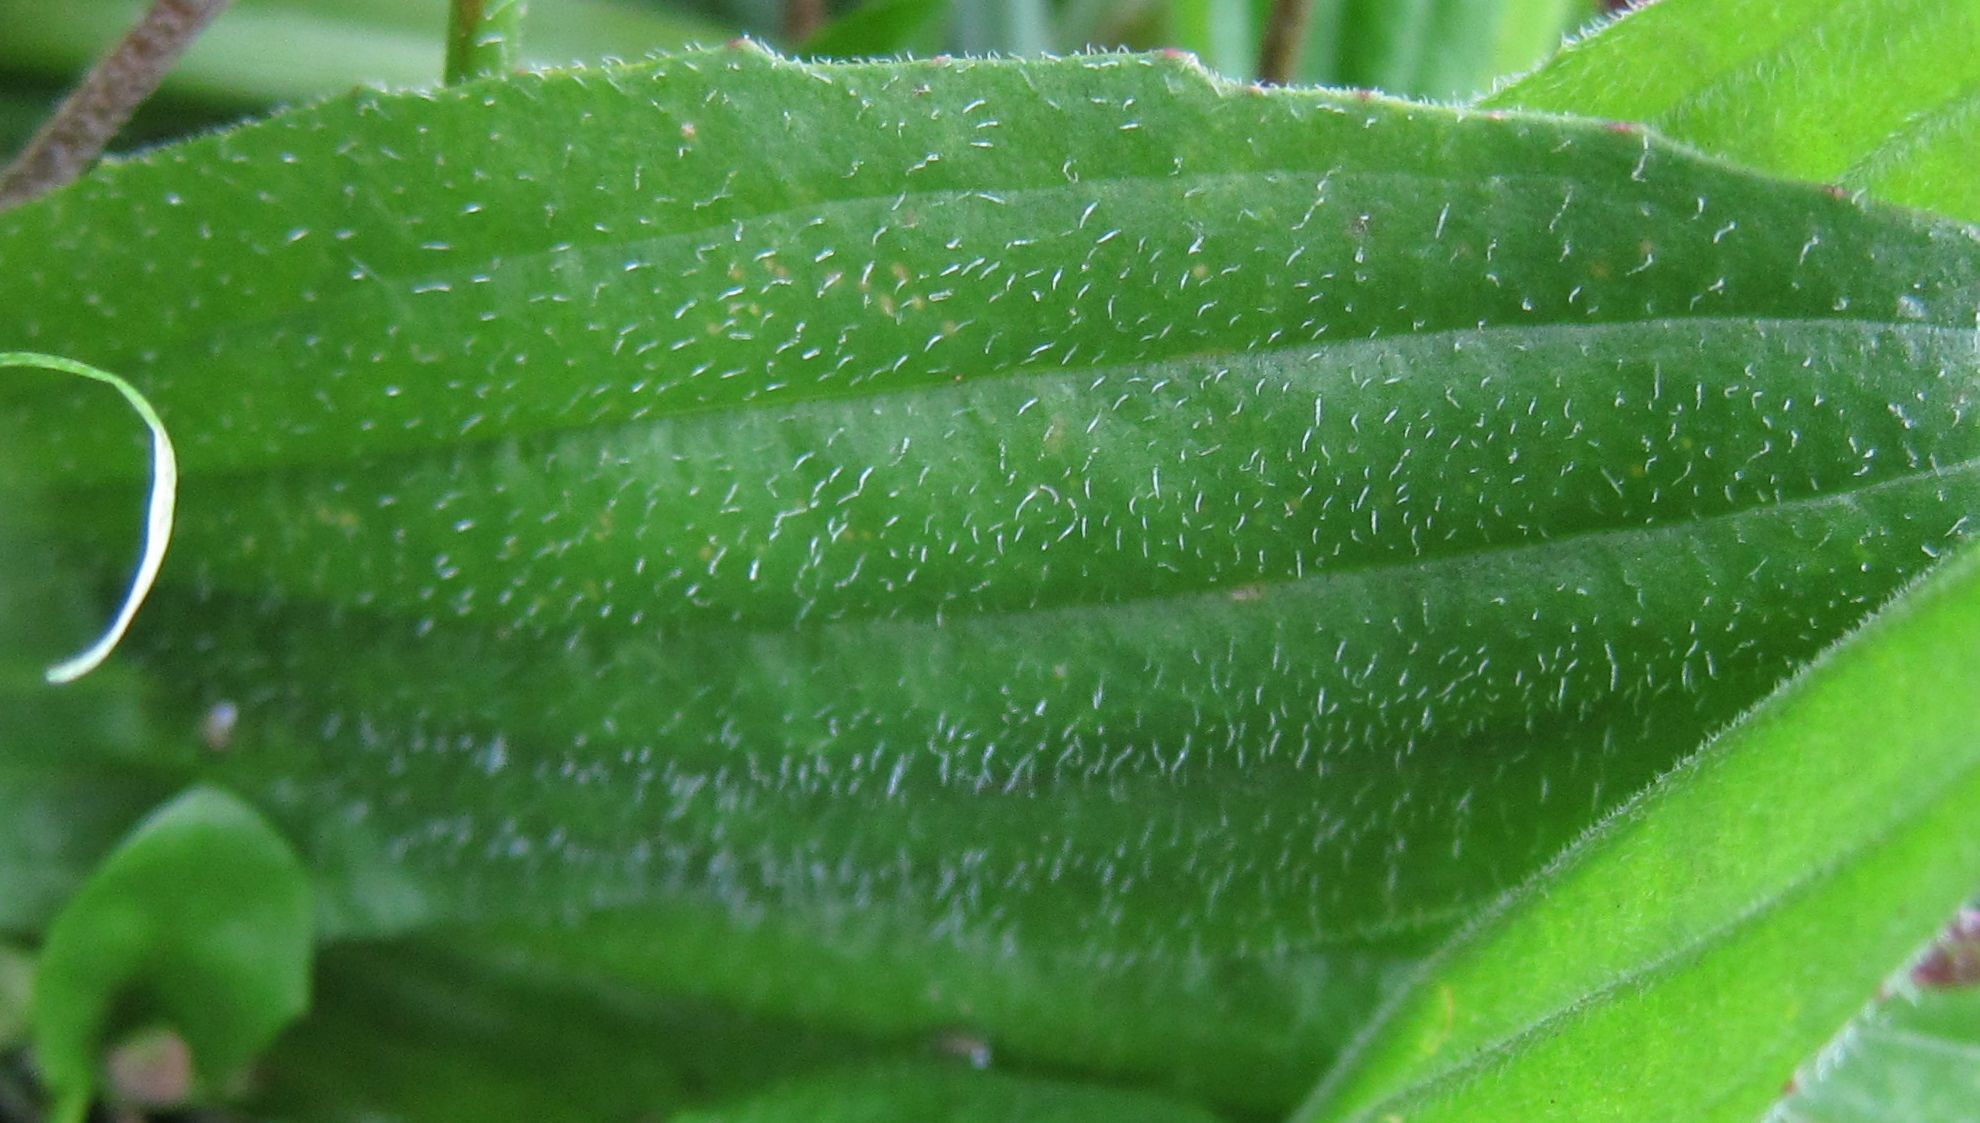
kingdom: Plantae
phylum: Tracheophyta
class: Magnoliopsida
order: Lamiales
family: Plantaginaceae
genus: Plantago
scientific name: Plantago australis
